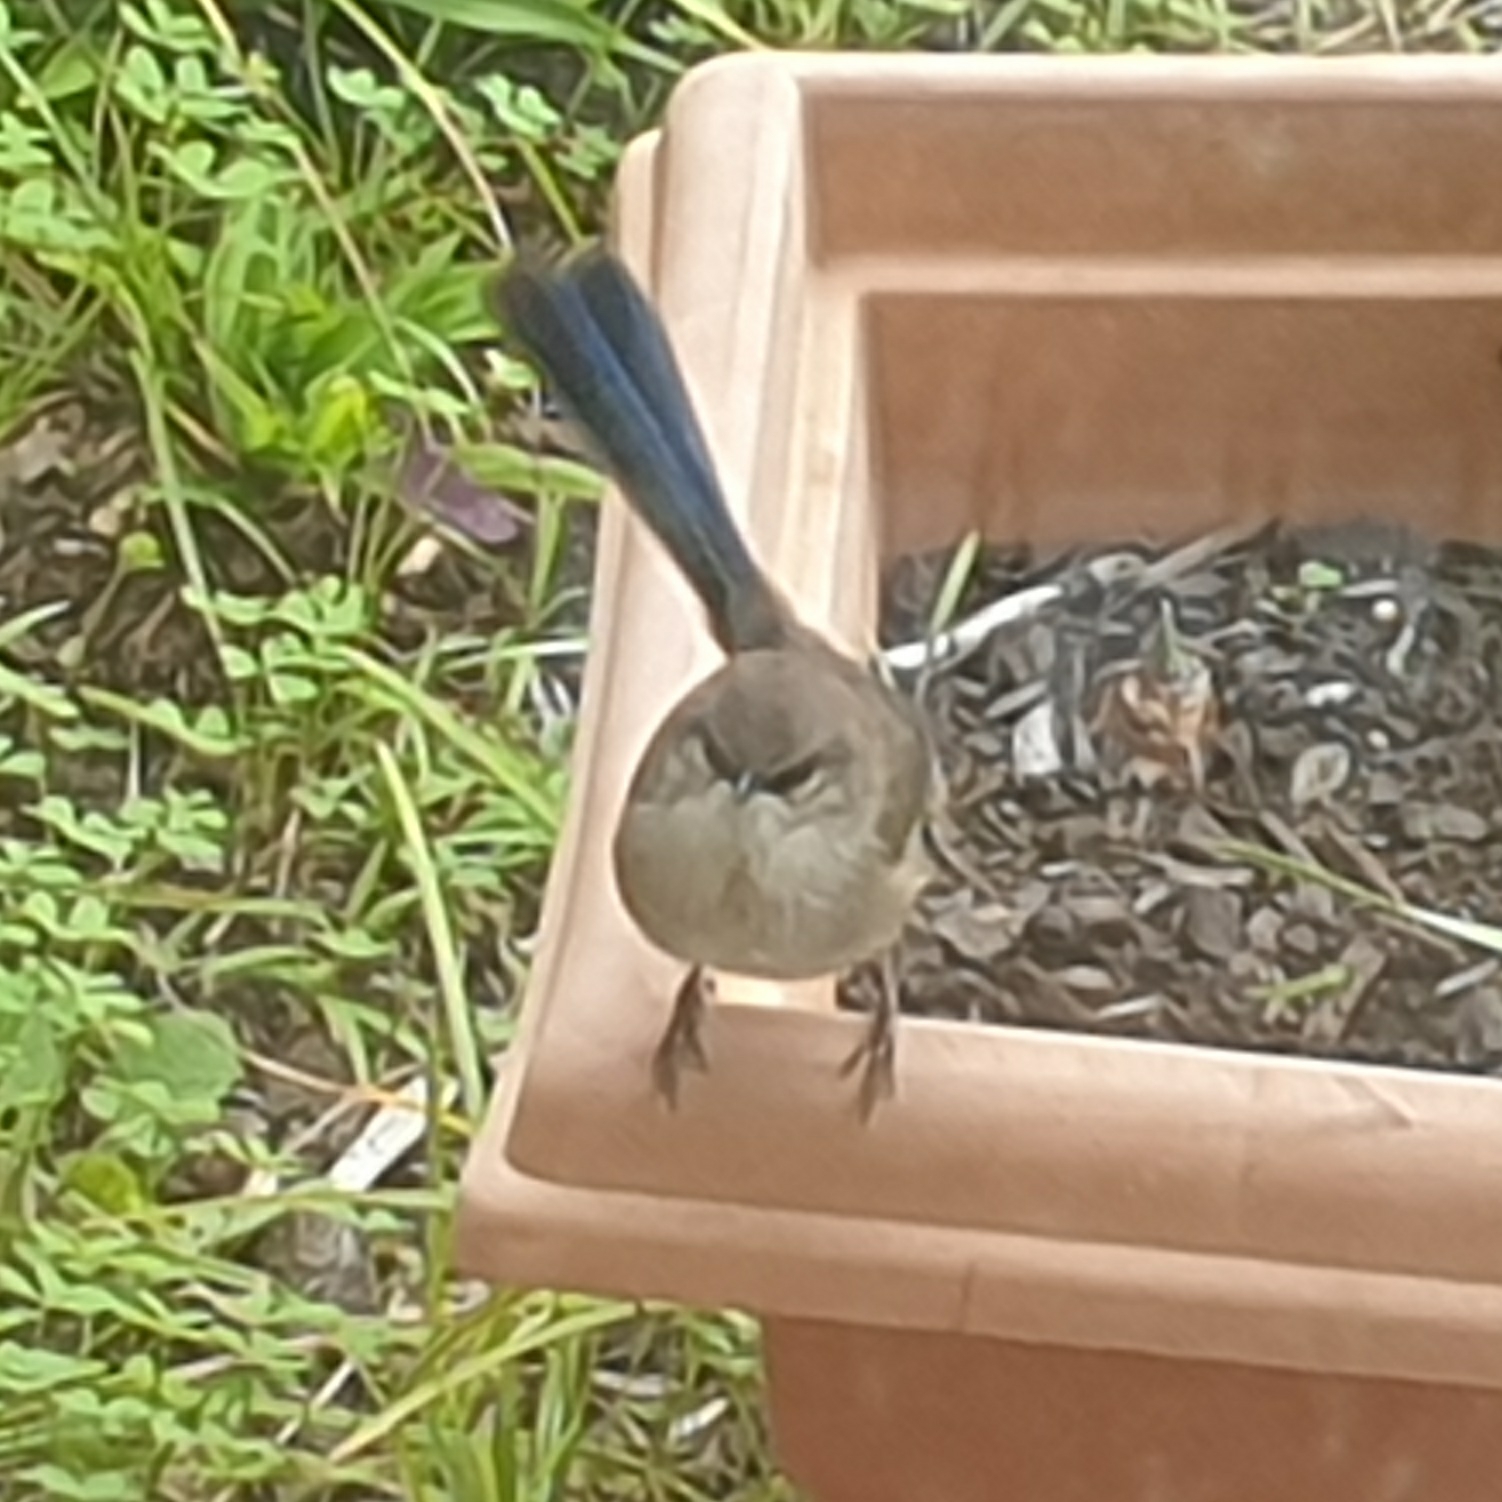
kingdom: Animalia
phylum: Chordata
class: Aves
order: Passeriformes
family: Maluridae
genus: Malurus
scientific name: Malurus cyaneus
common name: Superb fairywren
